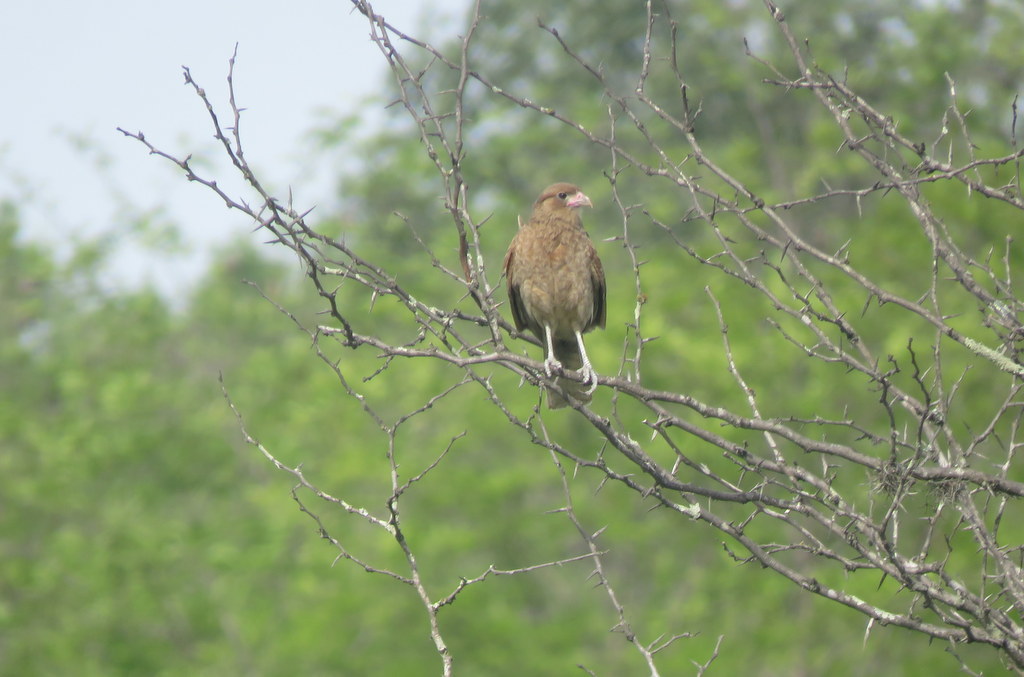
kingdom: Animalia
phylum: Chordata
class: Aves
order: Falconiformes
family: Falconidae
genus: Daptrius
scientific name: Daptrius
